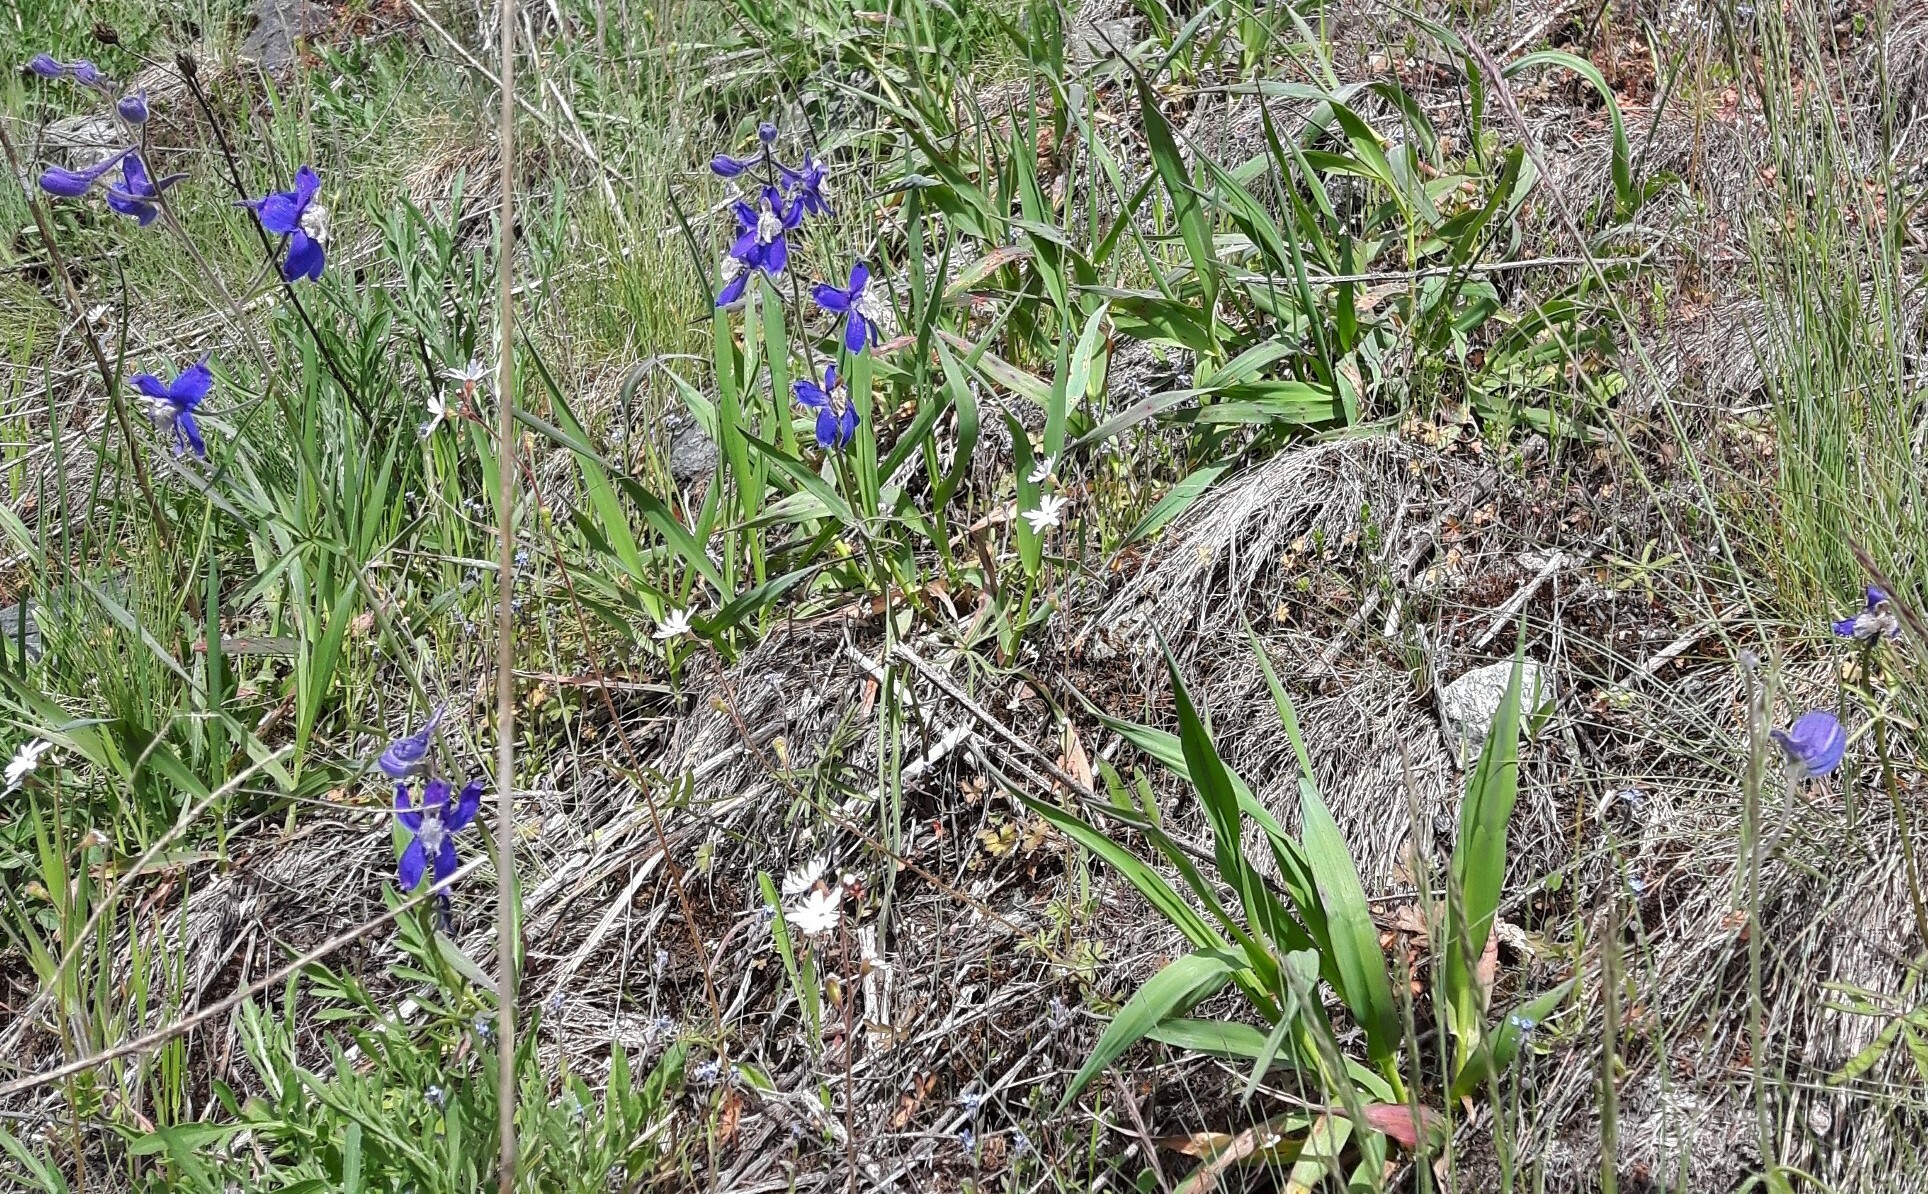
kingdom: Plantae
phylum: Tracheophyta
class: Magnoliopsida
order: Ranunculales
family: Ranunculaceae
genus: Delphinium
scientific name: Delphinium sutherlandii
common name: Sutherland's larkspur
